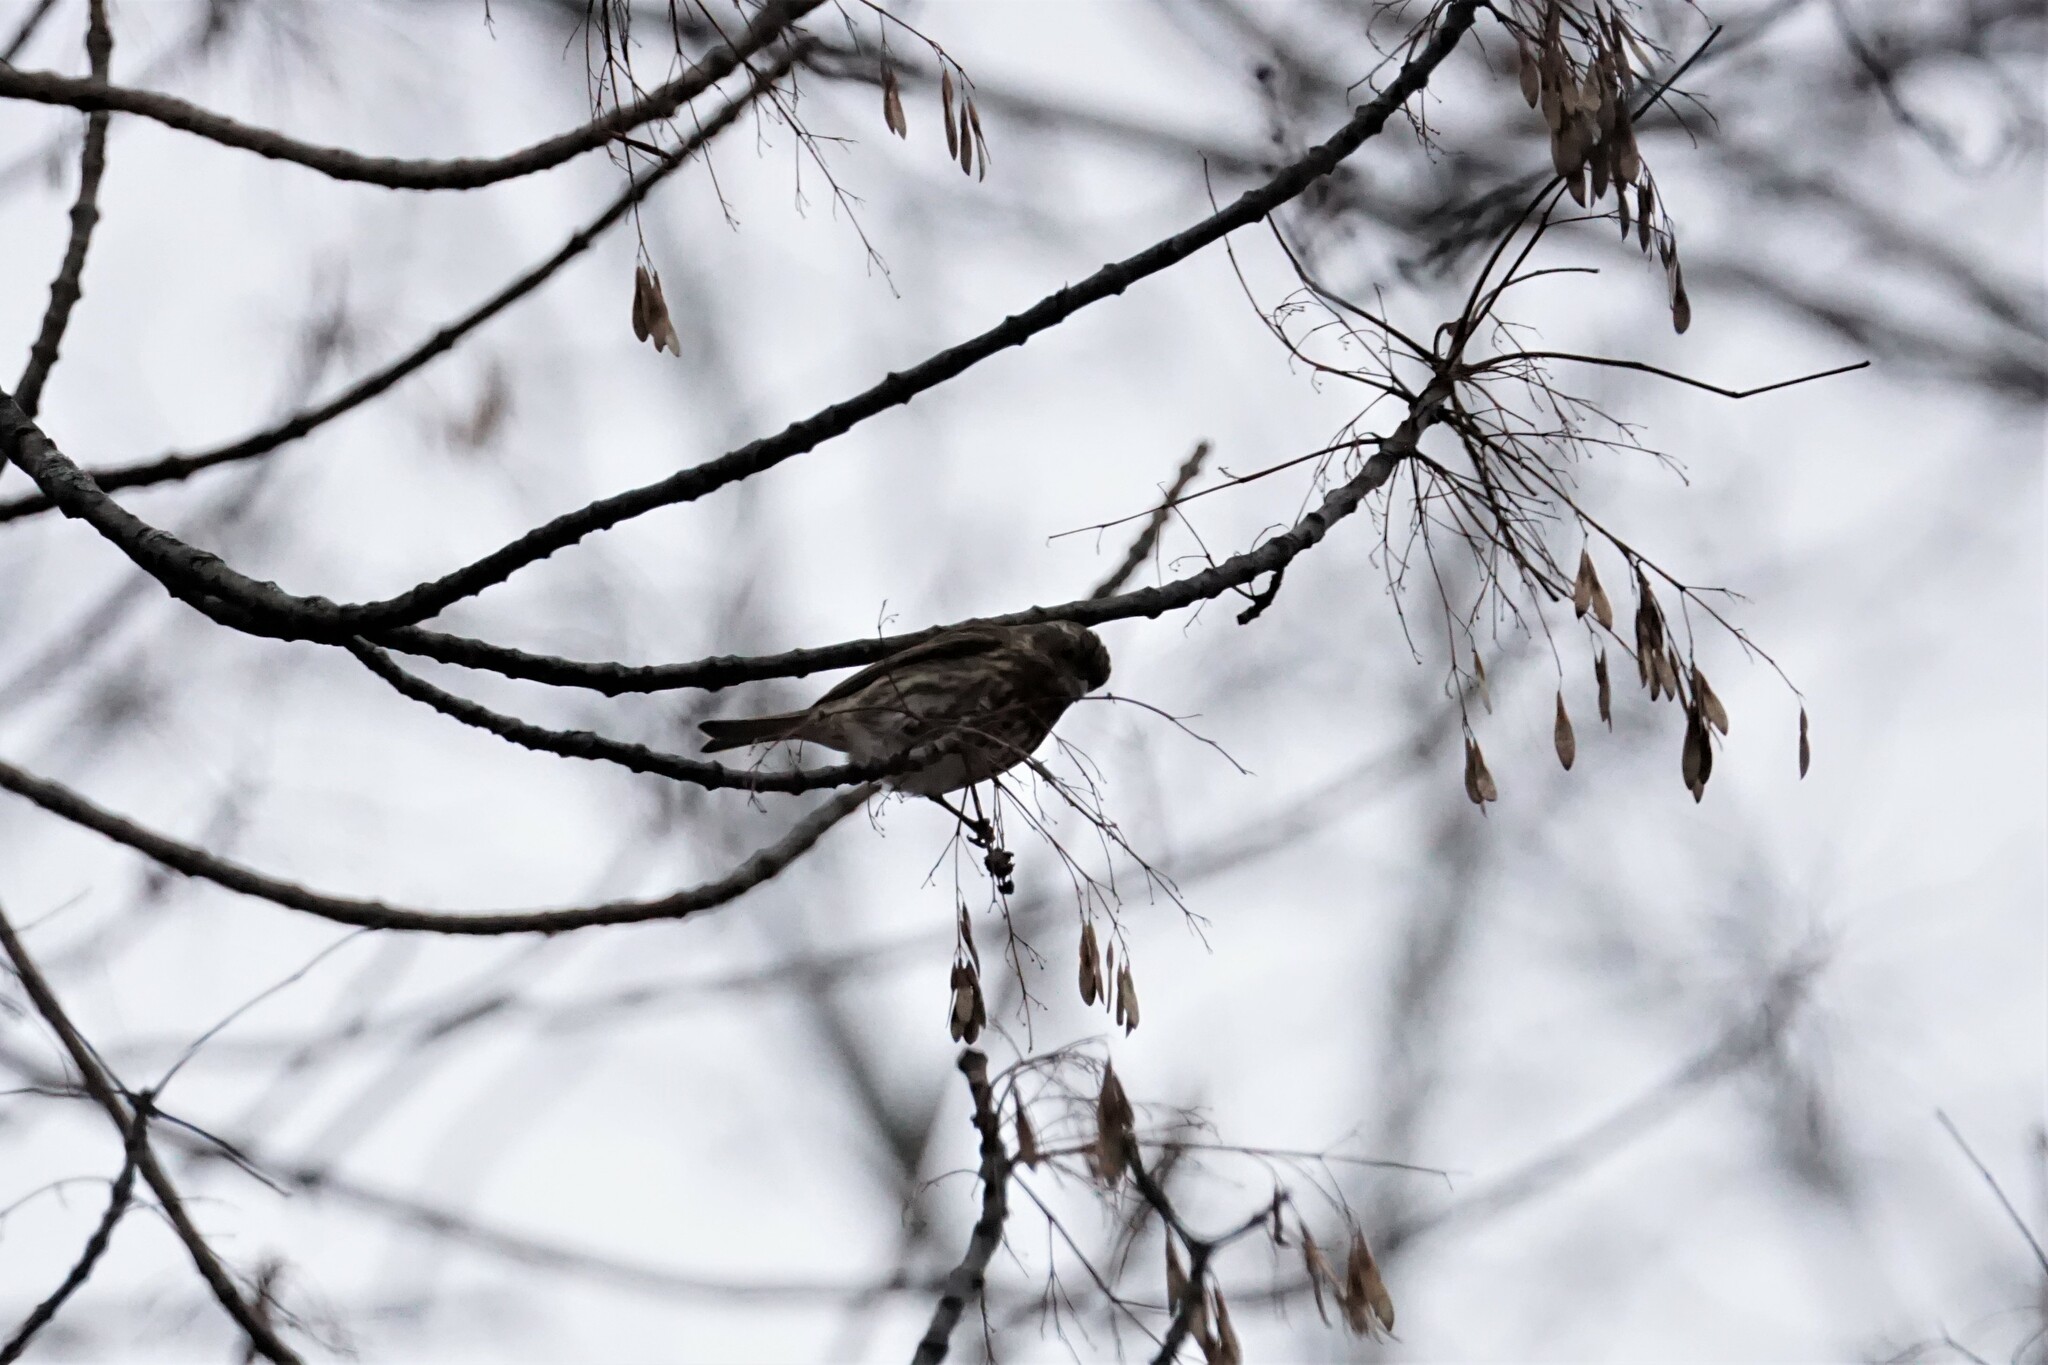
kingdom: Animalia
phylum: Chordata
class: Aves
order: Passeriformes
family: Fringillidae
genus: Haemorhous
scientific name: Haemorhous purpureus
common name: Purple finch
